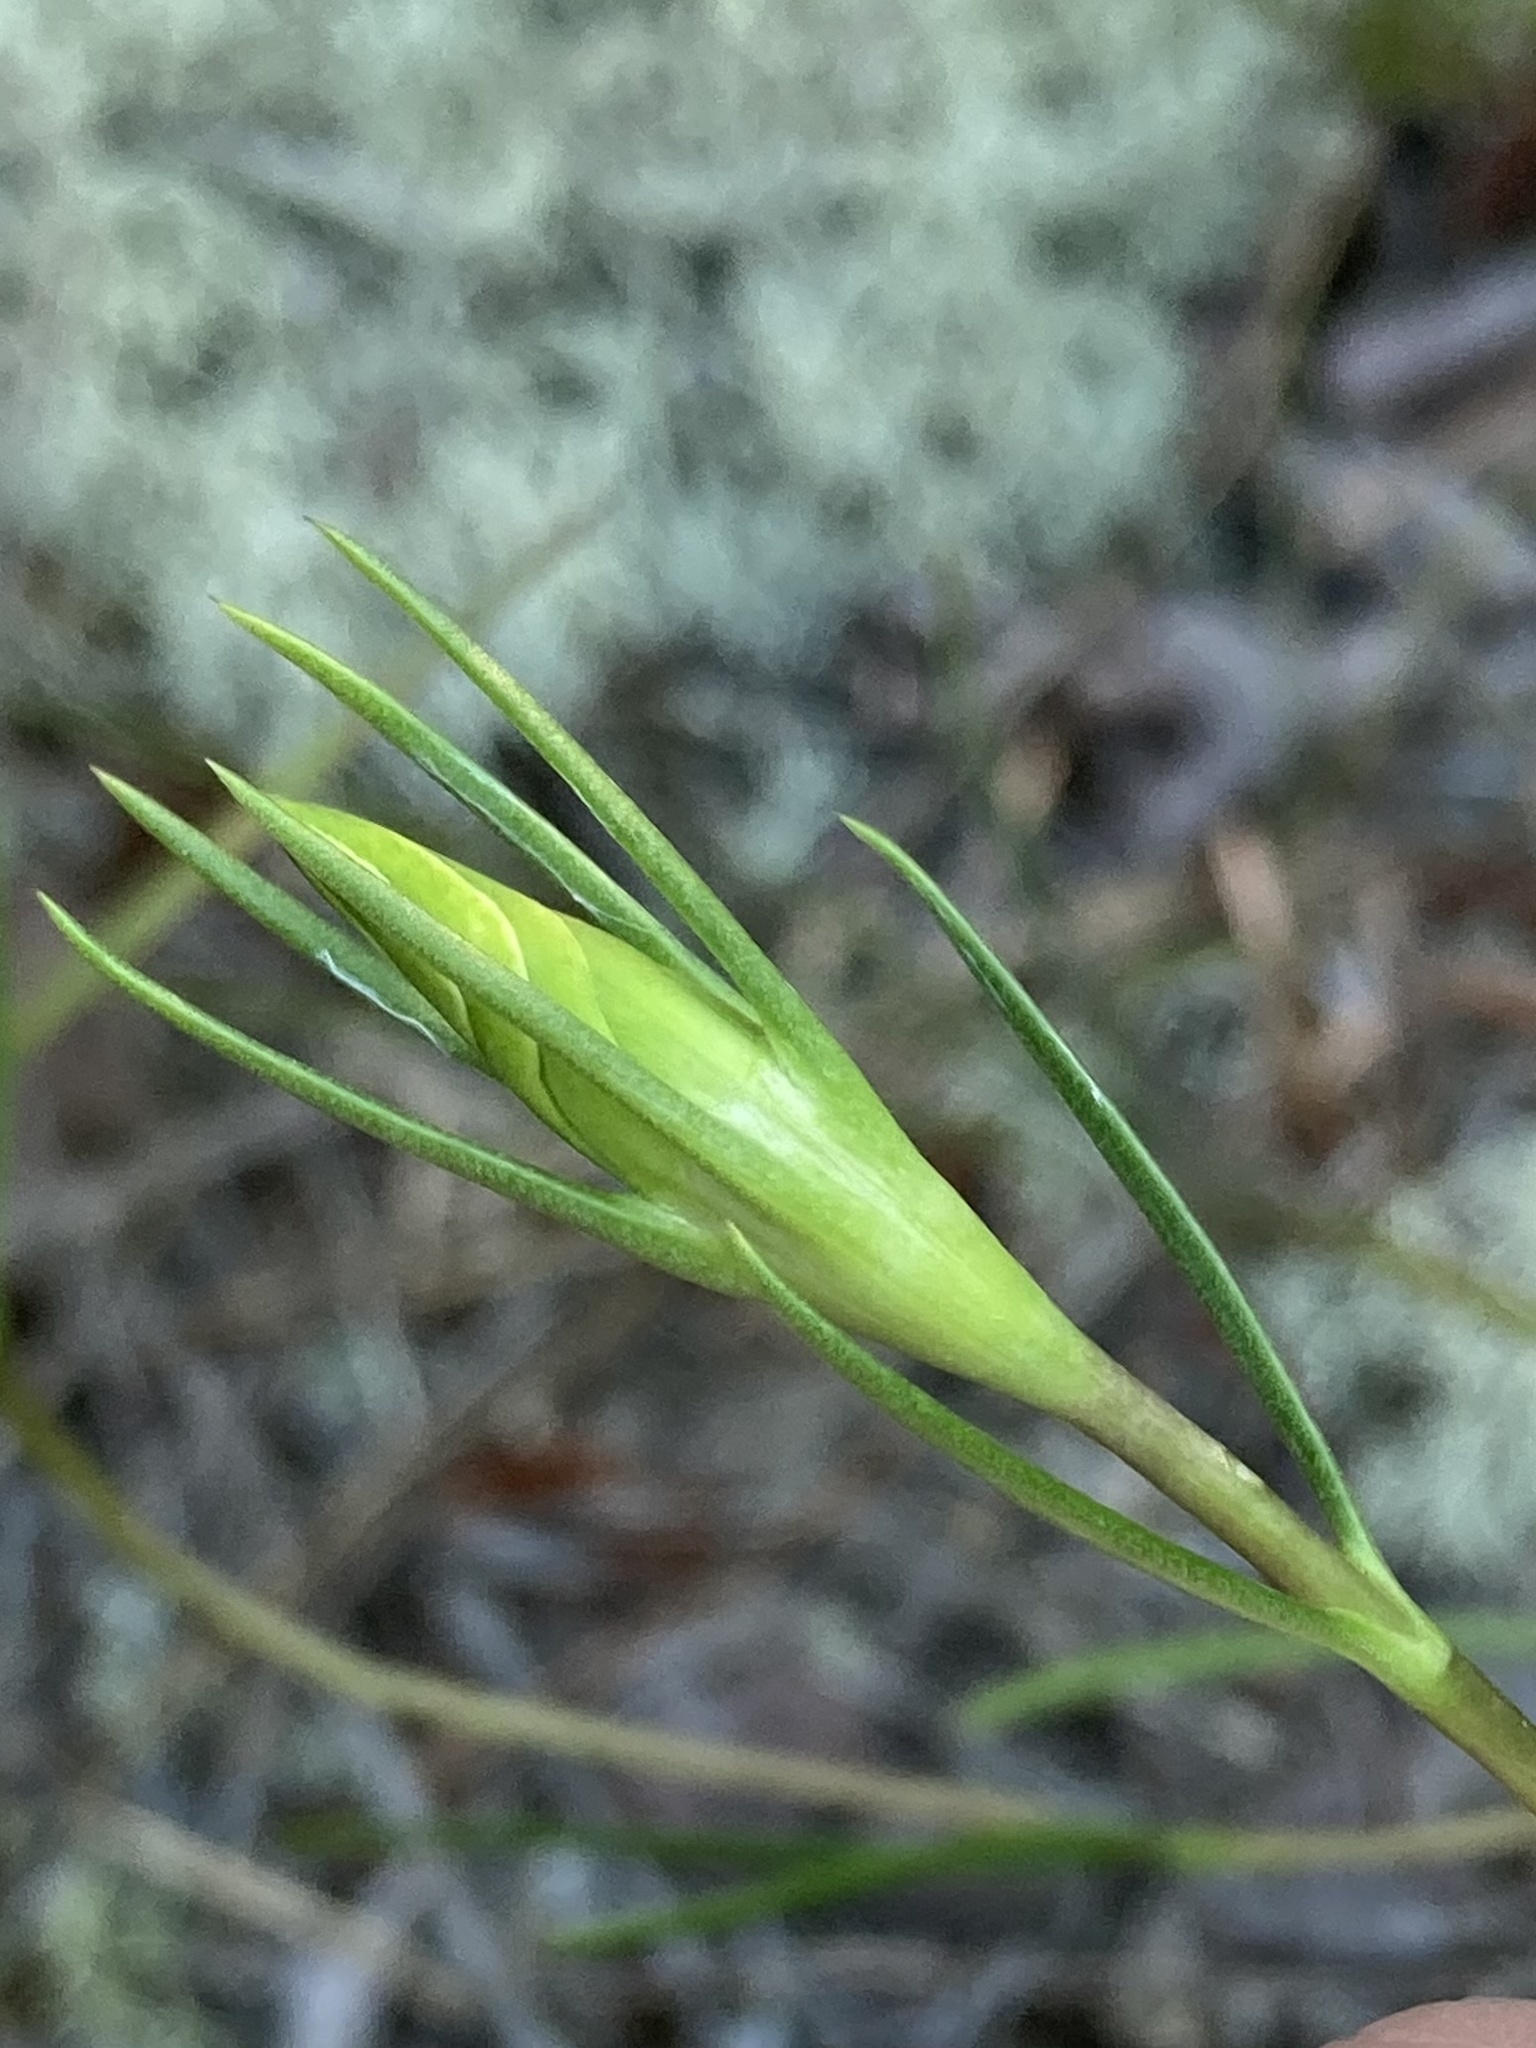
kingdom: Plantae
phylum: Tracheophyta
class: Magnoliopsida
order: Gentianales
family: Gentianaceae
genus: Gentiana
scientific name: Gentiana autumnalis
